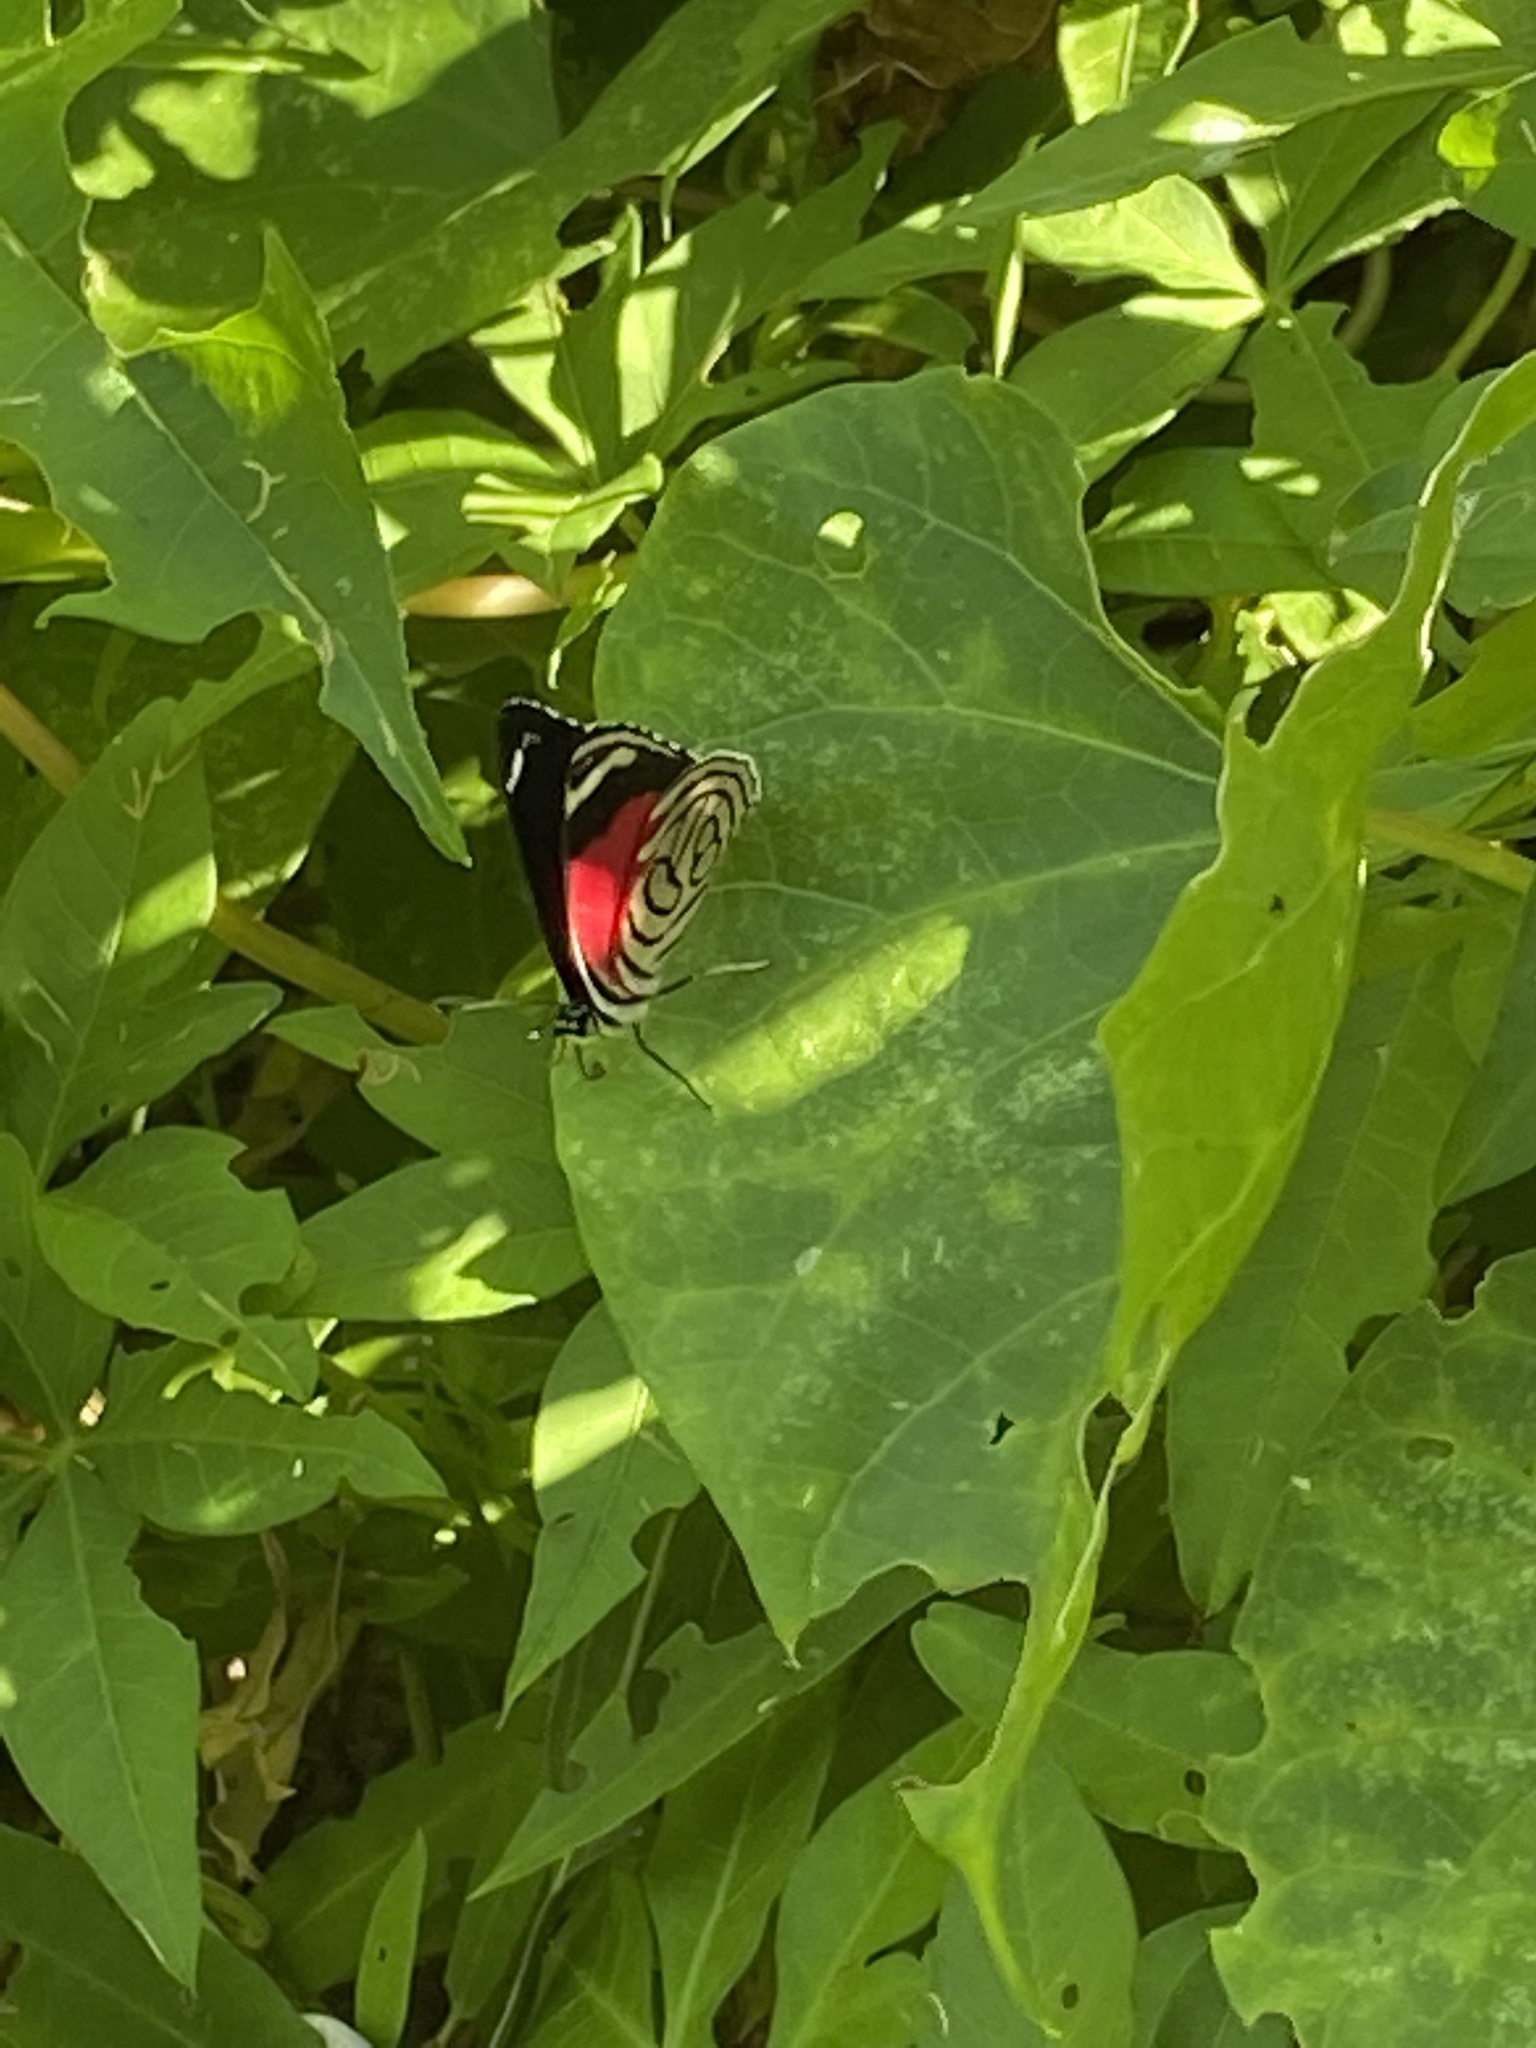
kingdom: Animalia
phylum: Arthropoda
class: Insecta
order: Lepidoptera
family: Nymphalidae
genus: Diaethria
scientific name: Diaethria candrena
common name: Number eighty
